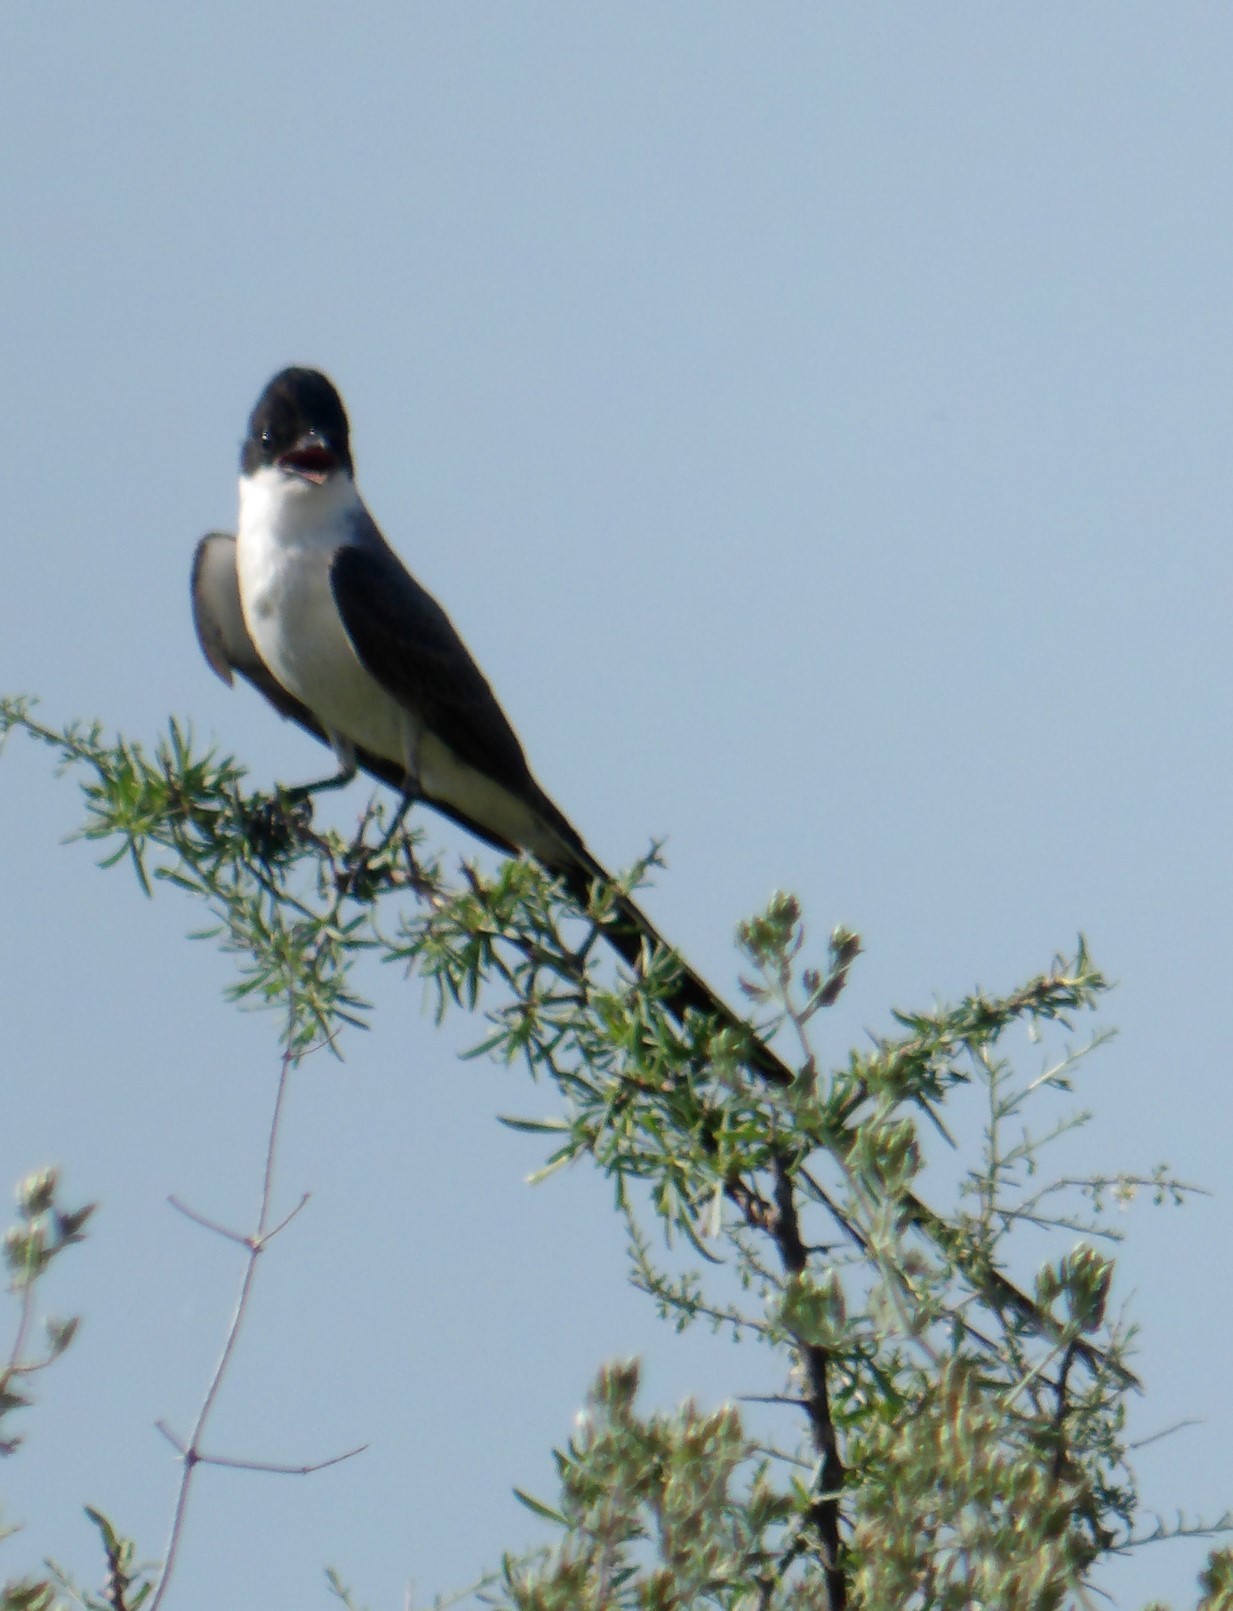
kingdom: Animalia
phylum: Chordata
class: Aves
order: Passeriformes
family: Tyrannidae
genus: Tyrannus
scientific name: Tyrannus savana
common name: Fork-tailed flycatcher
